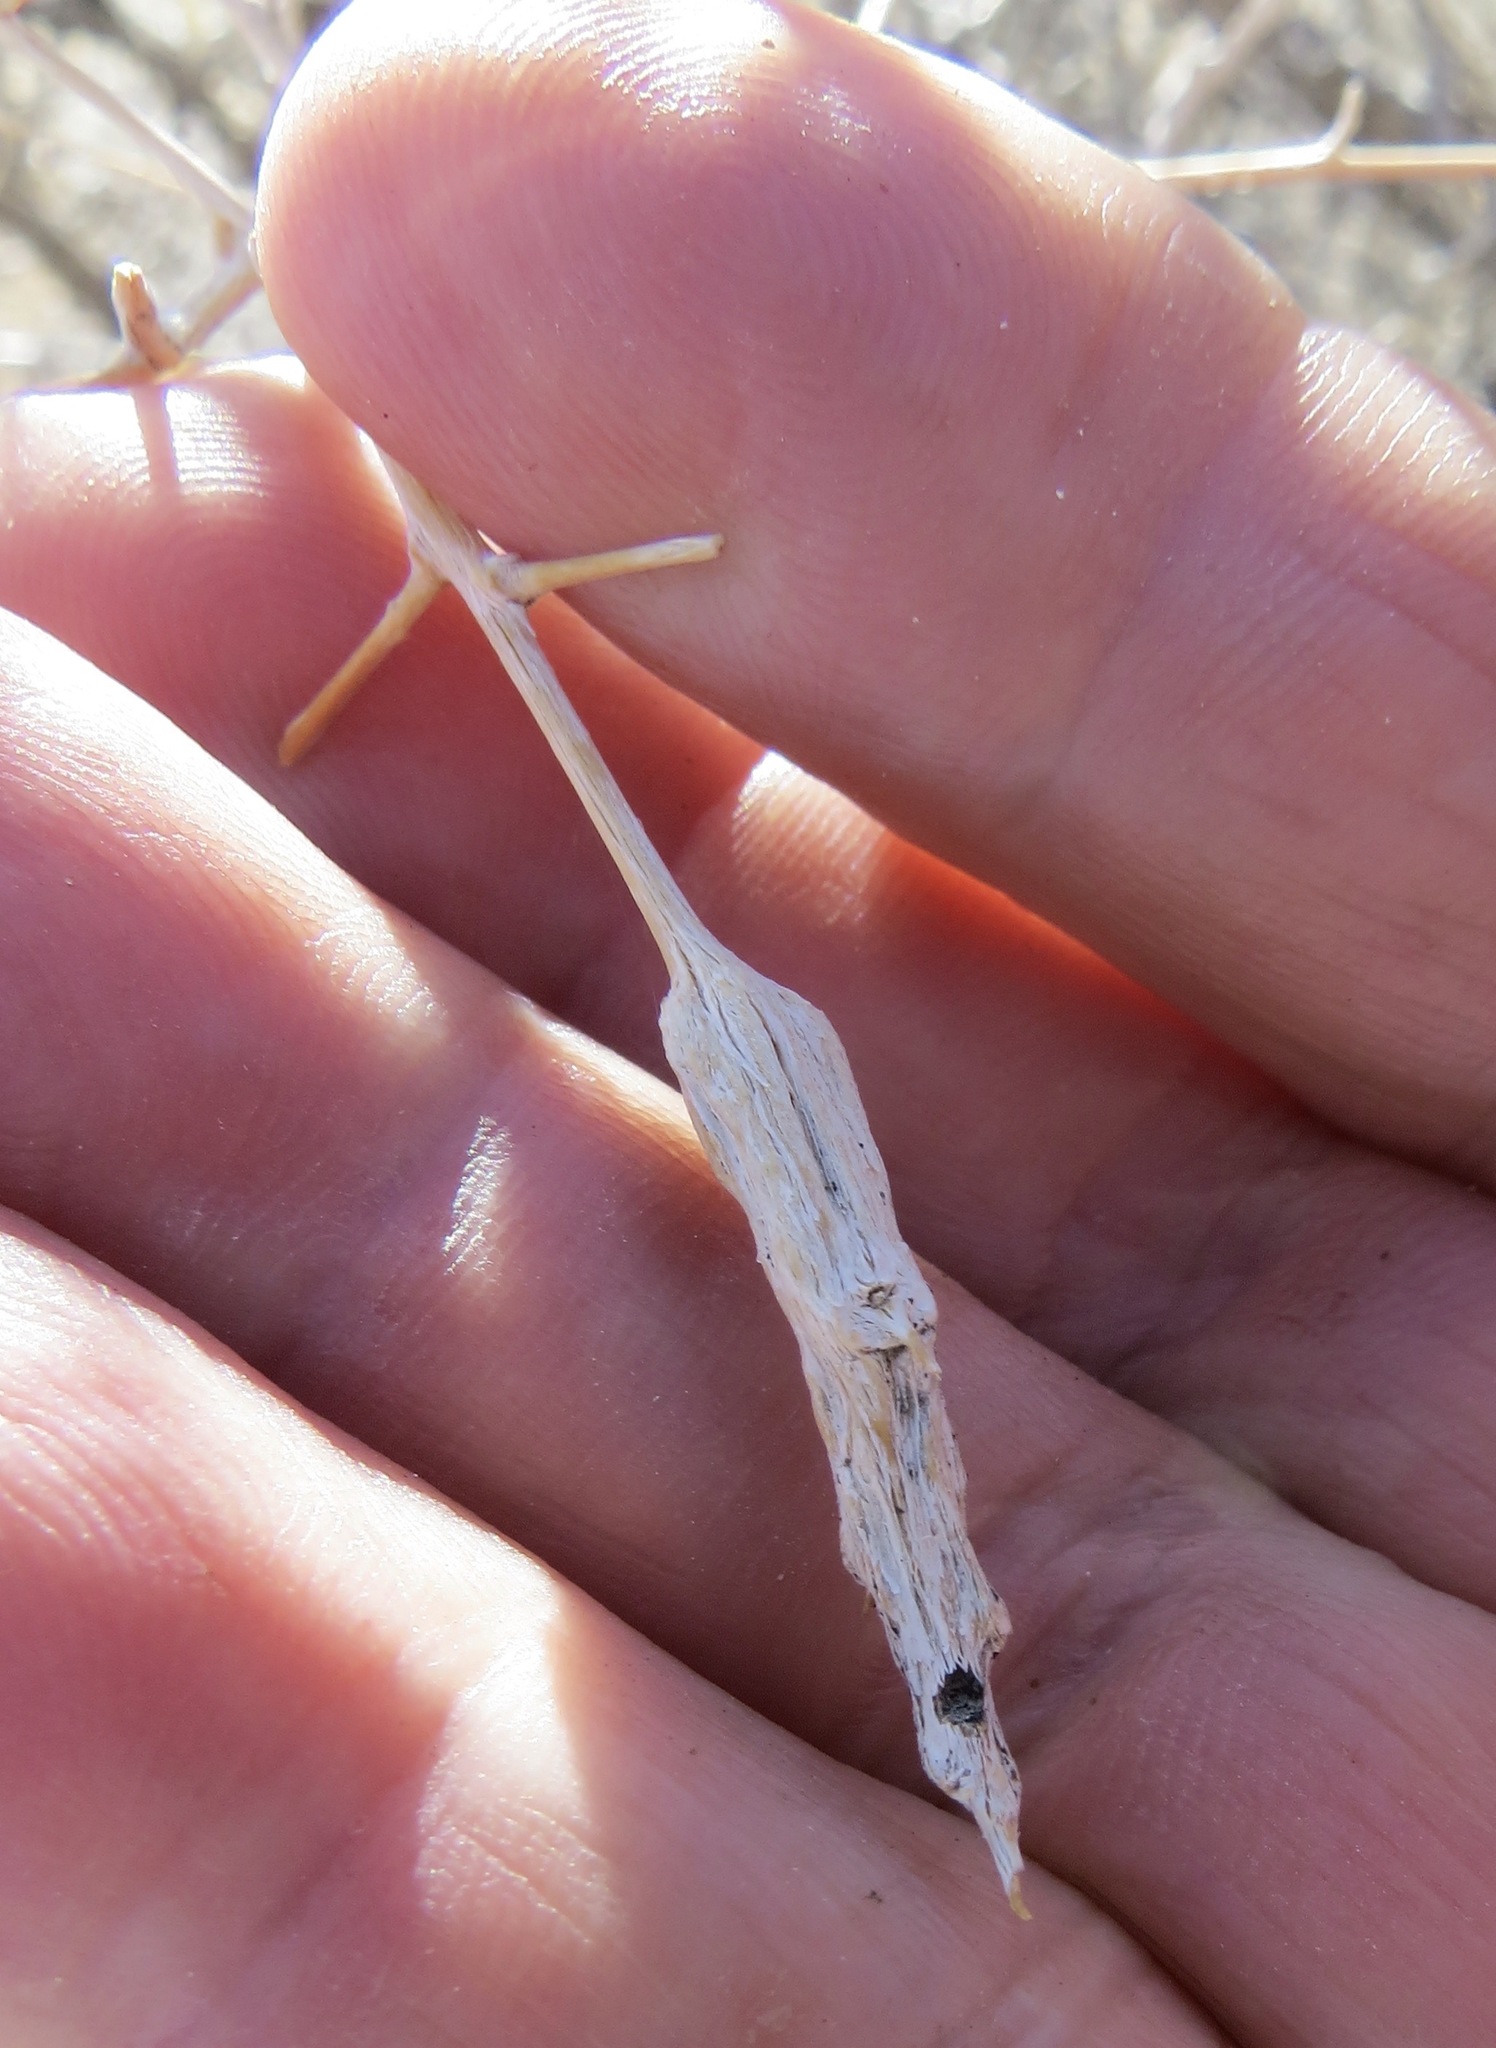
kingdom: Animalia
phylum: Arthropoda
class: Insecta
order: Diptera
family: Cecidomyiidae
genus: Neolasioptera
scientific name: Neolasioptera willistoni
